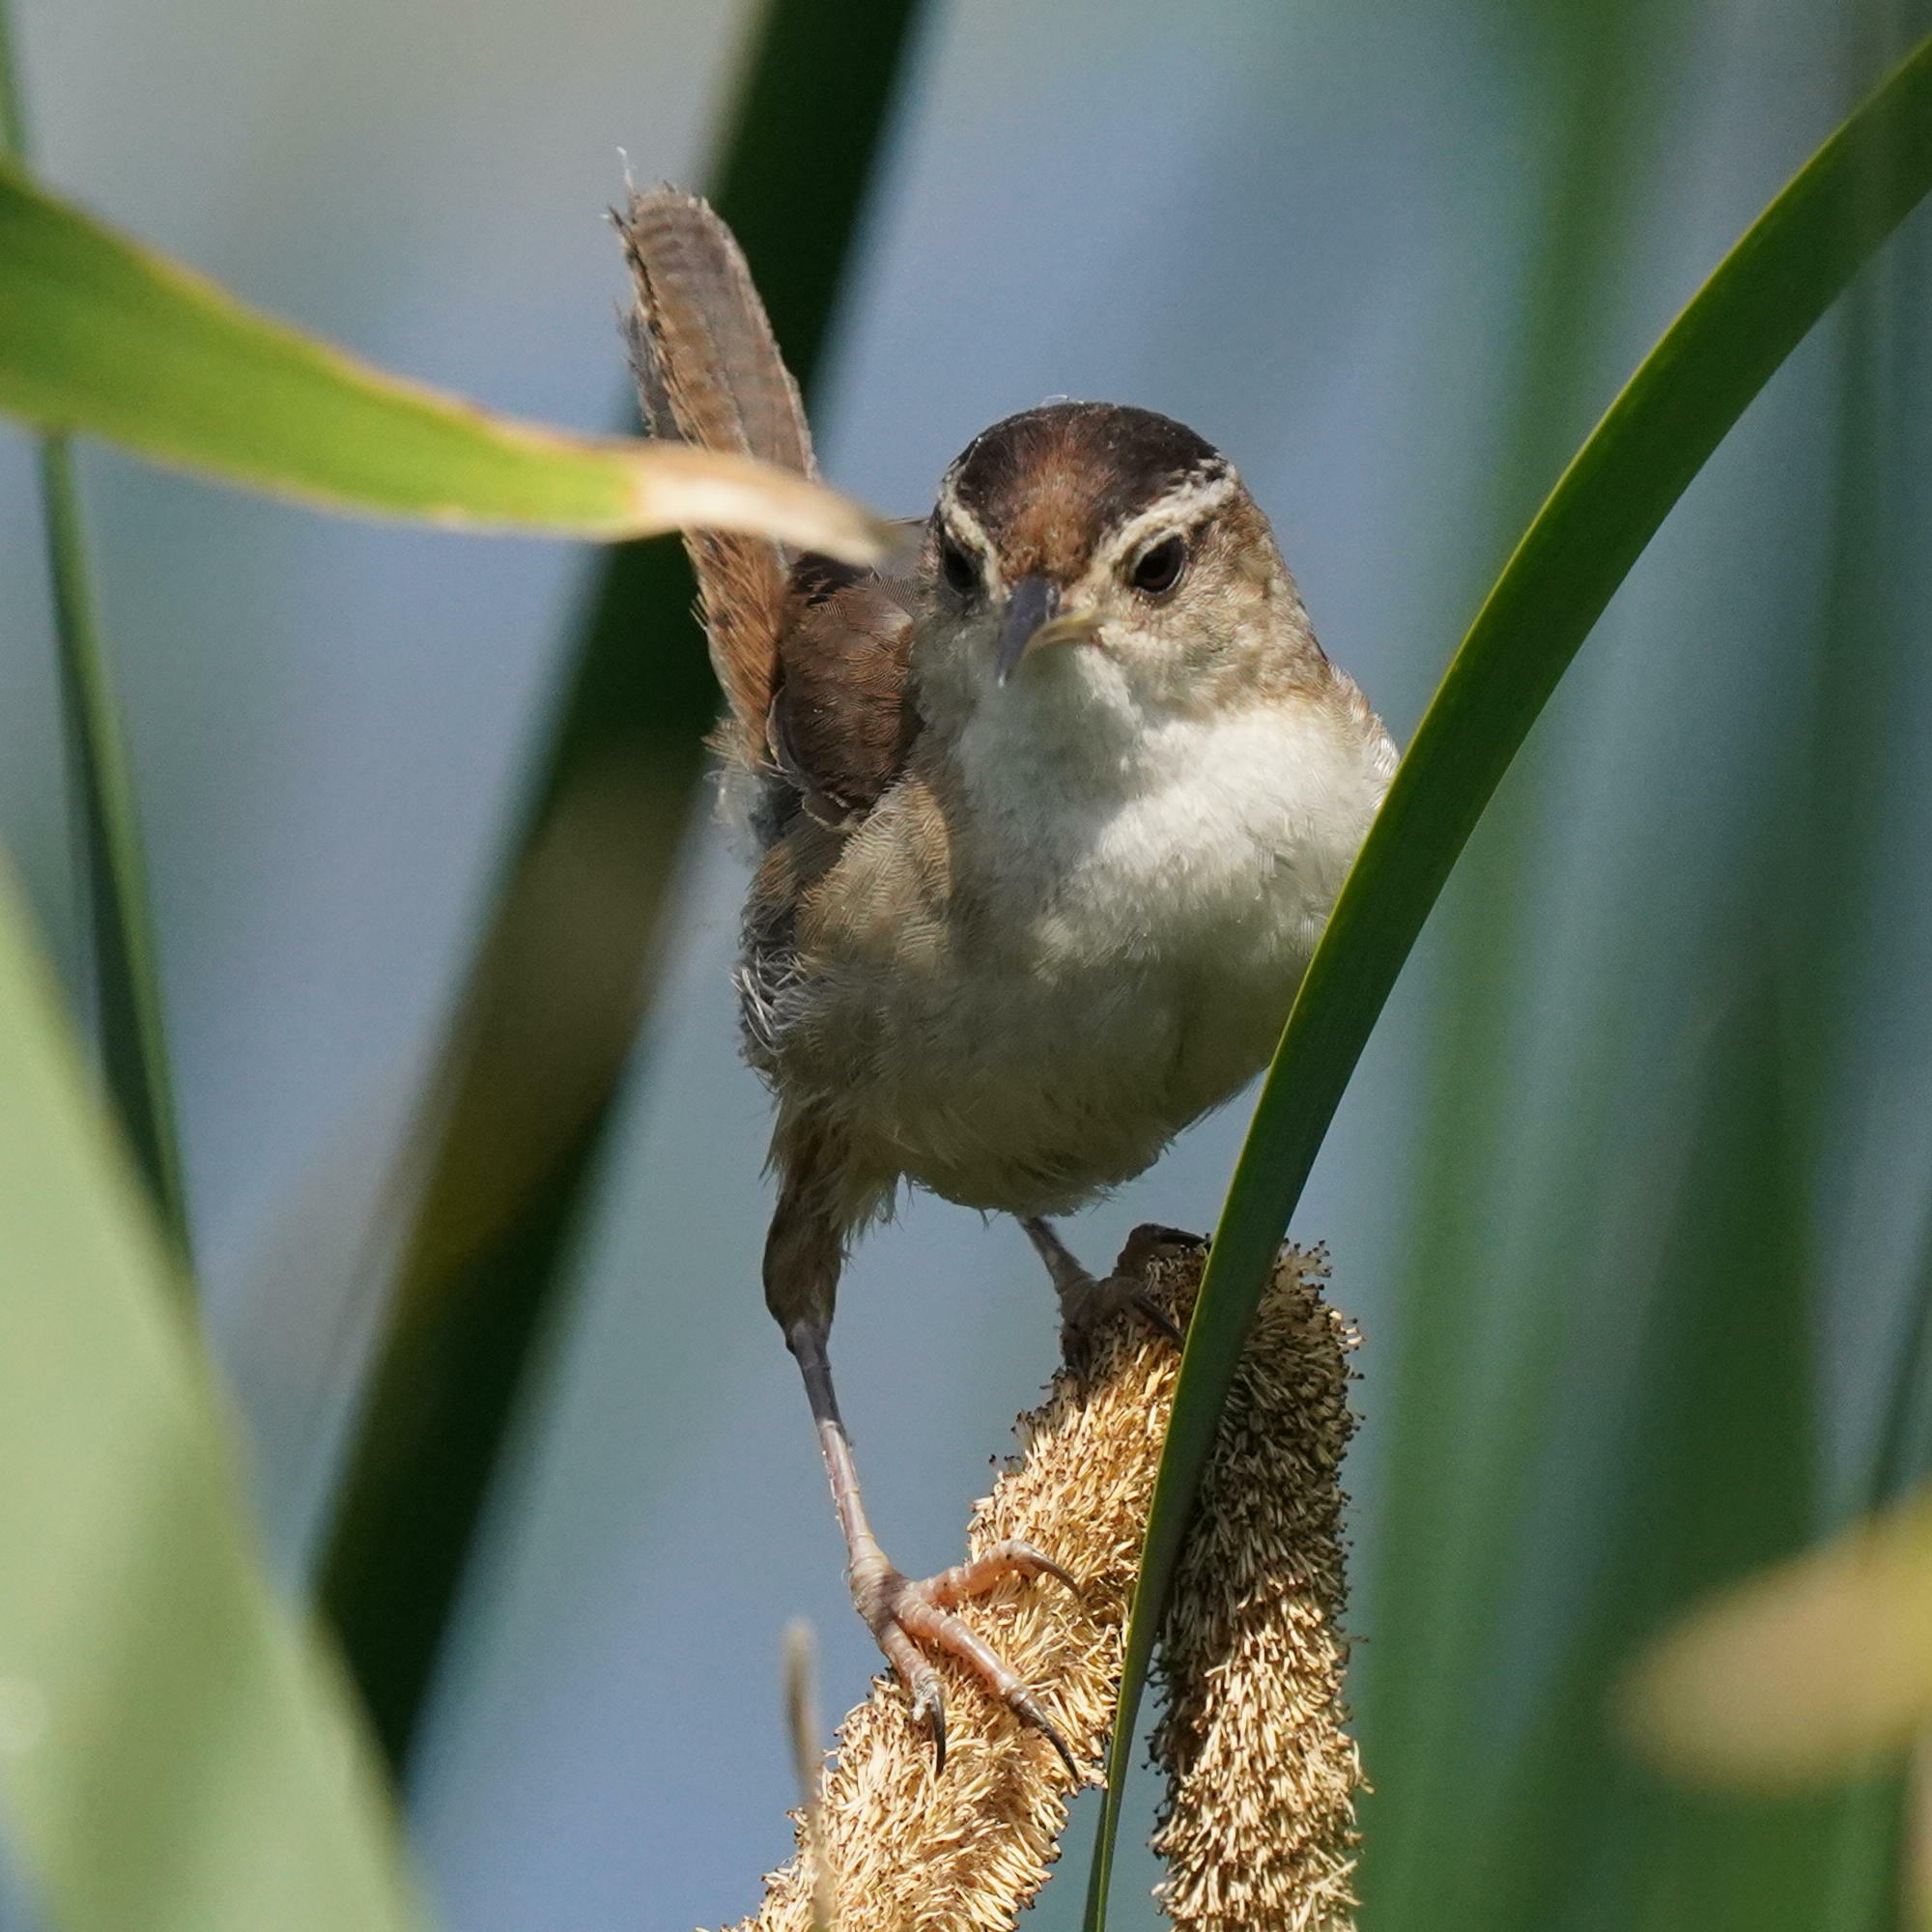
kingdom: Animalia
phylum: Chordata
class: Aves
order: Passeriformes
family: Troglodytidae
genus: Cistothorus
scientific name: Cistothorus palustris
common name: Marsh wren
